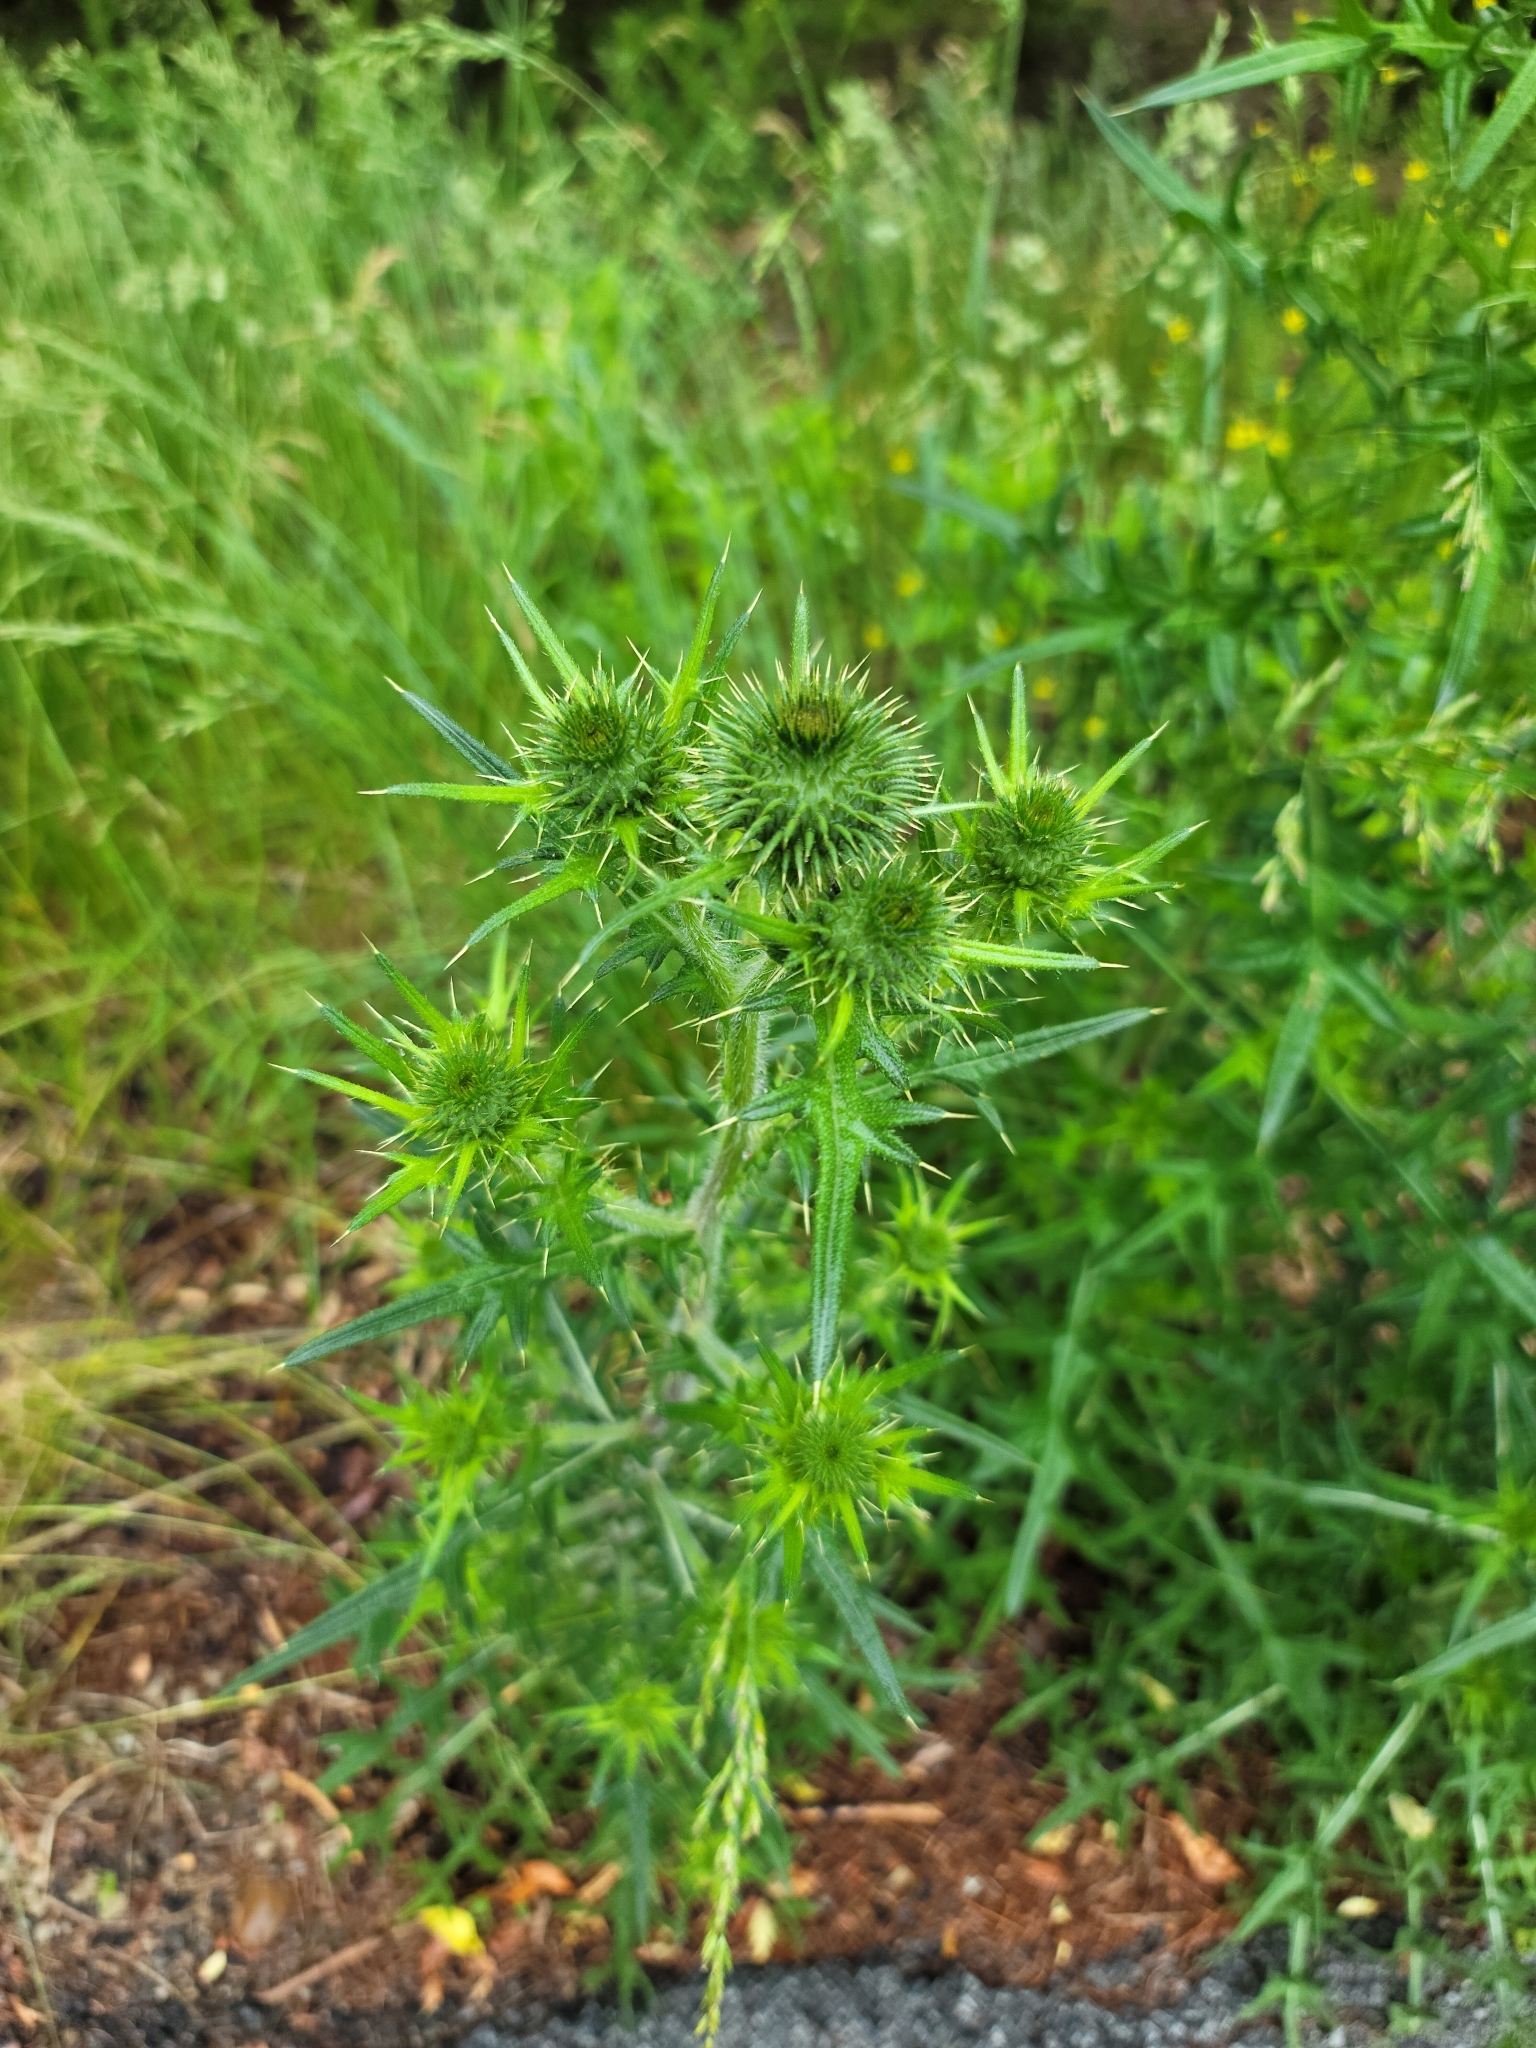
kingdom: Plantae
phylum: Tracheophyta
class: Magnoliopsida
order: Asterales
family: Asteraceae
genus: Cirsium
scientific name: Cirsium vulgare
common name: Bull thistle
